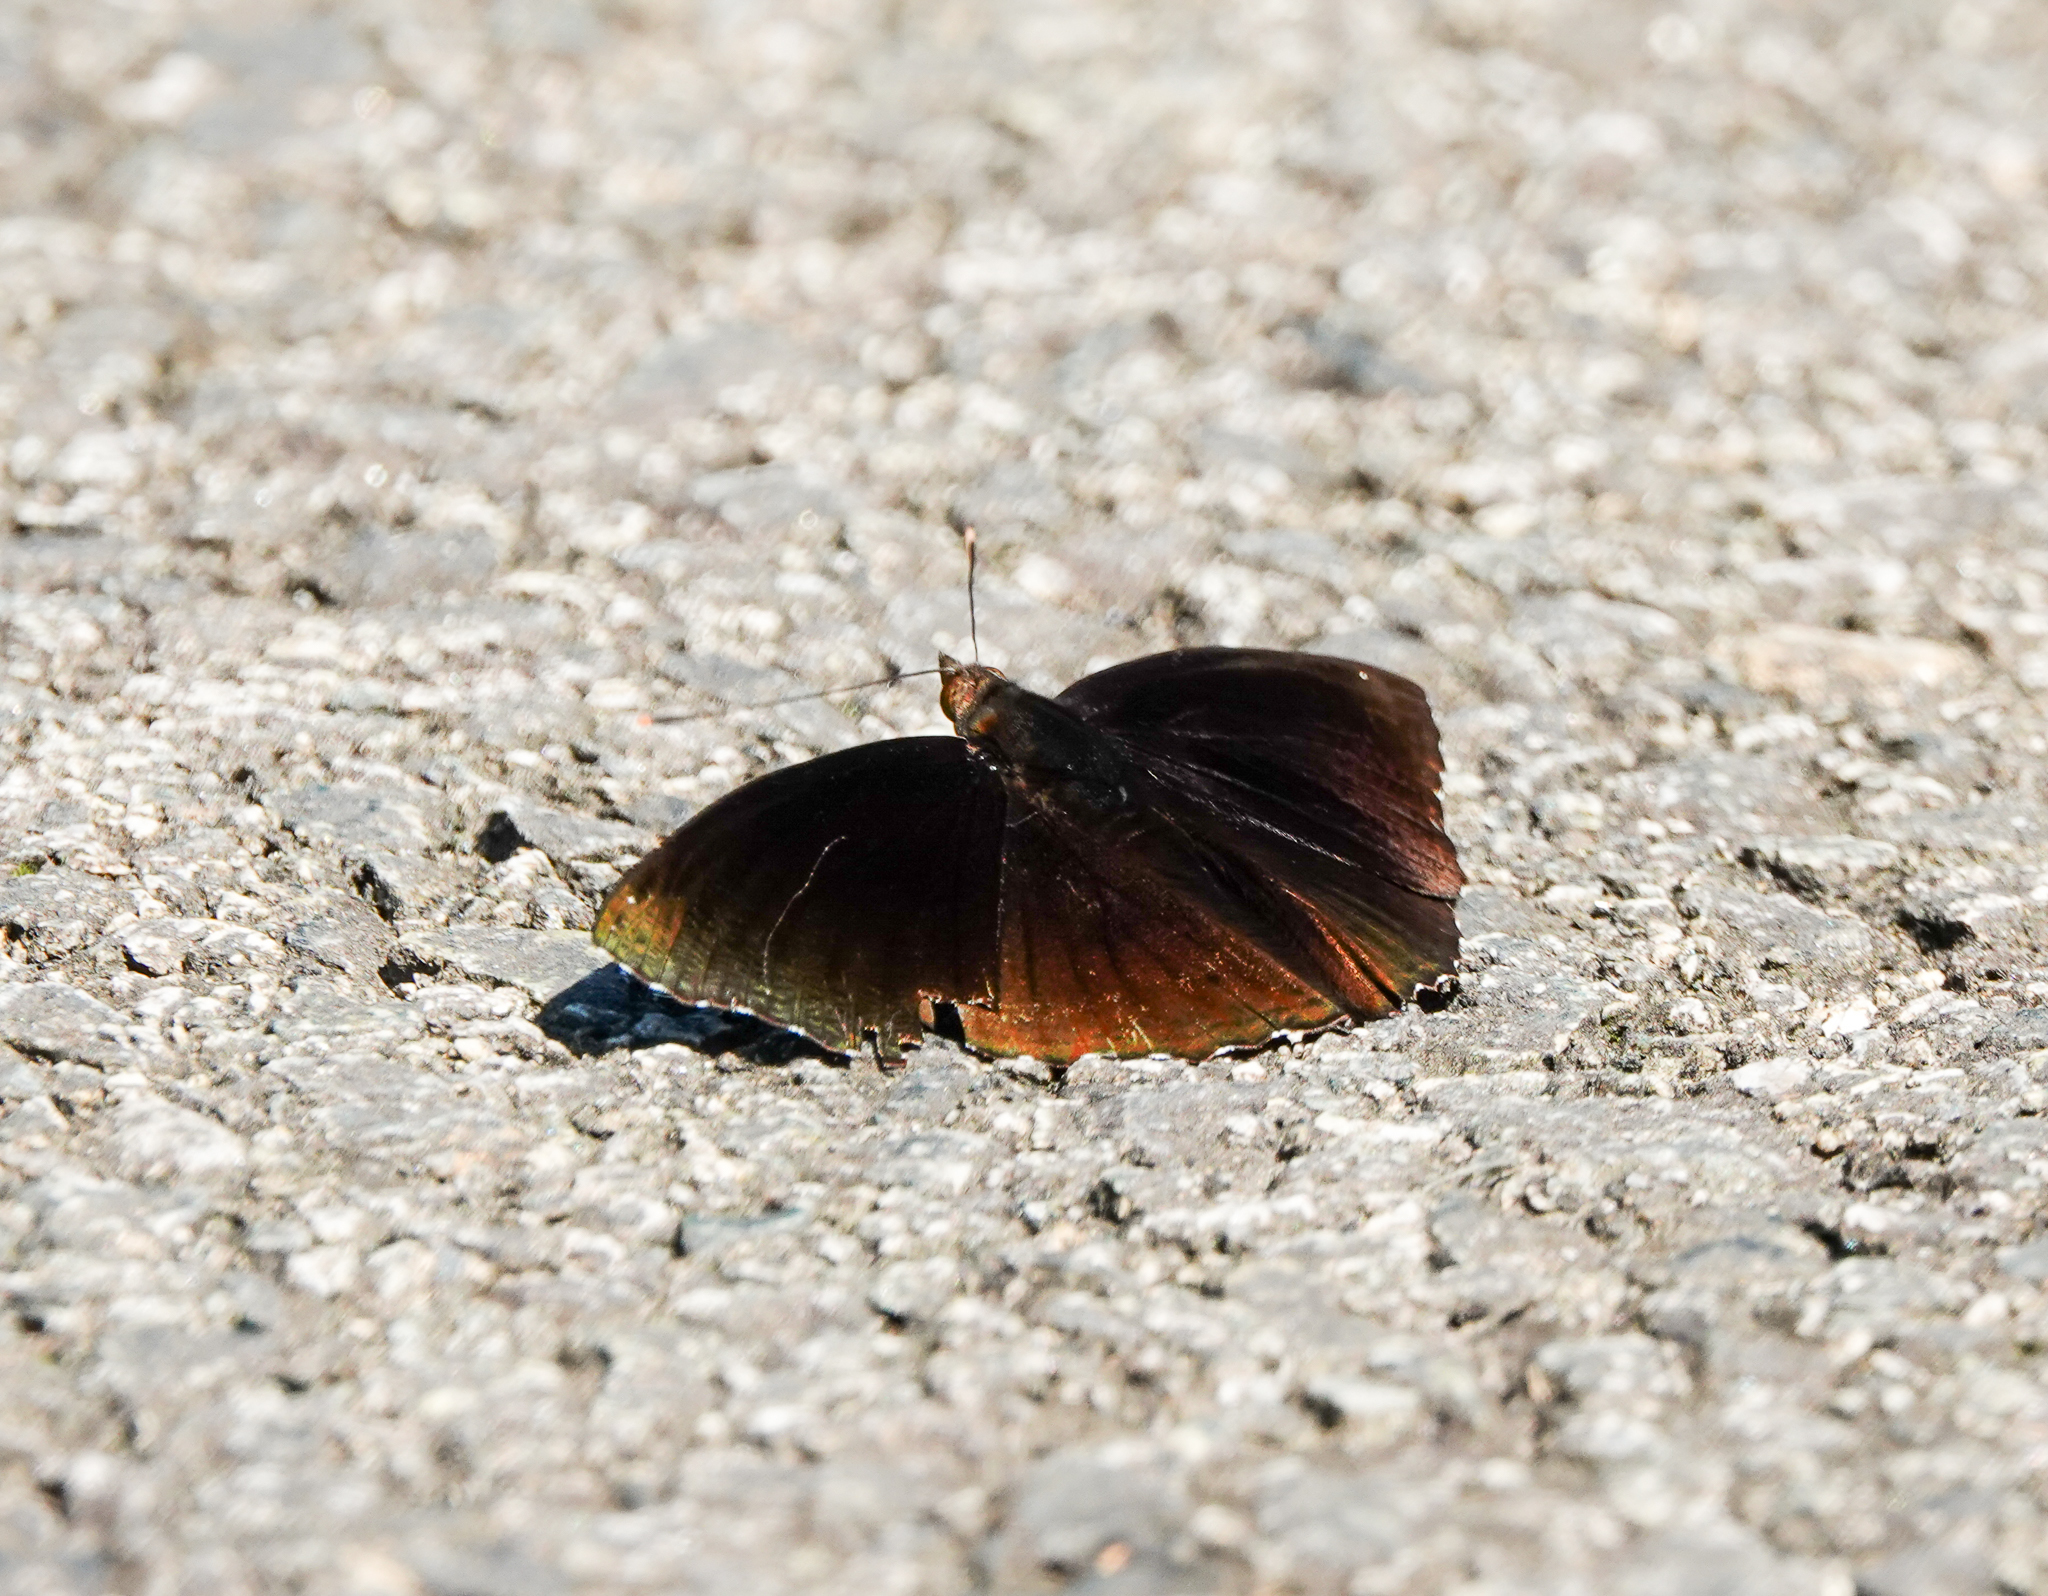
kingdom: Animalia
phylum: Arthropoda
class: Insecta
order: Lepidoptera
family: Nymphalidae
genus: Apatura
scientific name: Apatura Rohana spec
